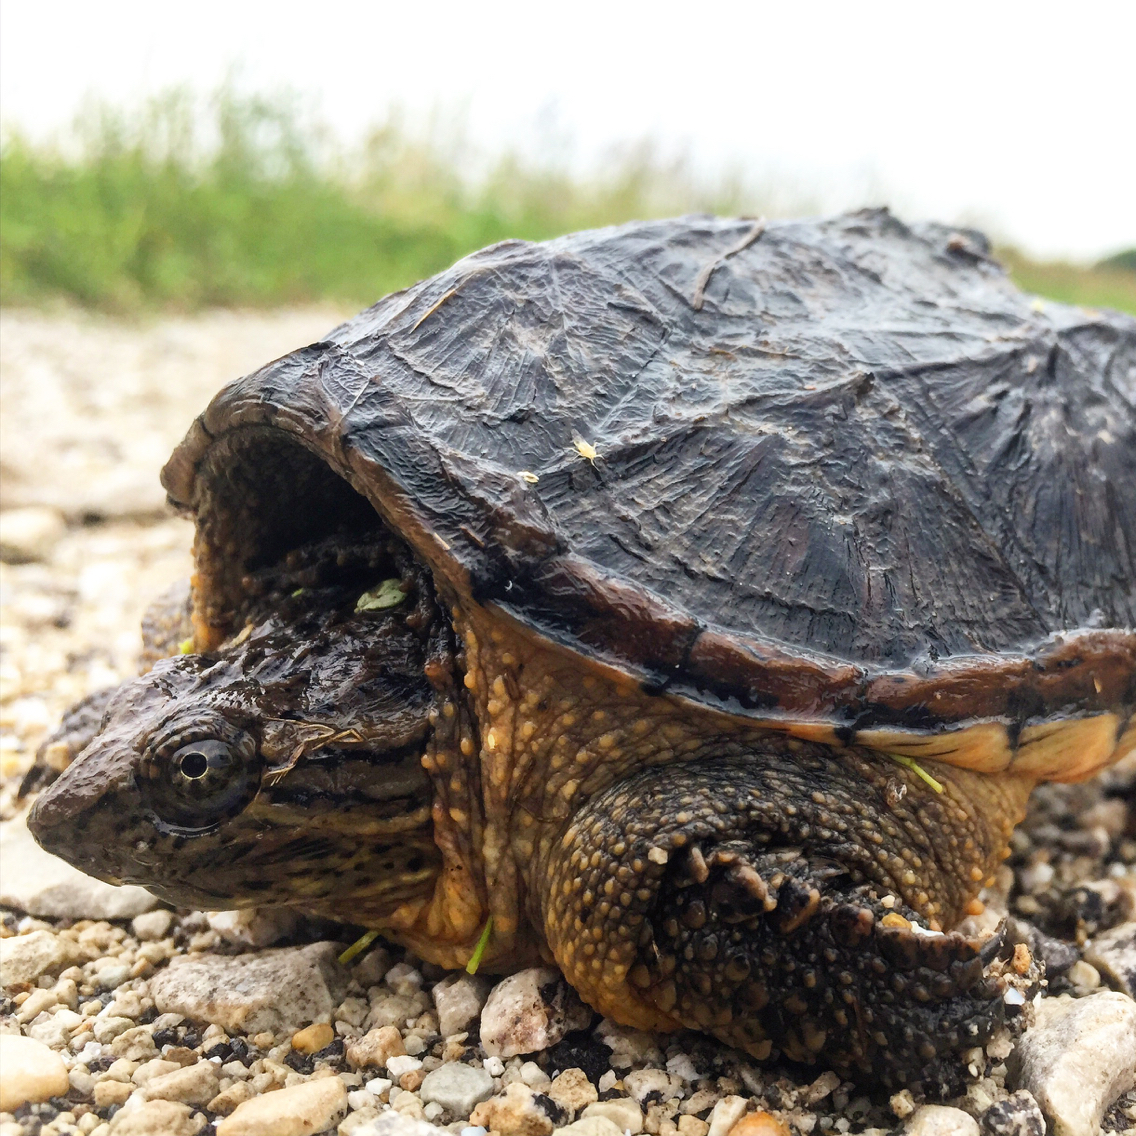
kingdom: Animalia
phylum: Chordata
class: Testudines
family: Chelydridae
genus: Chelydra
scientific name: Chelydra serpentina
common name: Common snapping turtle
